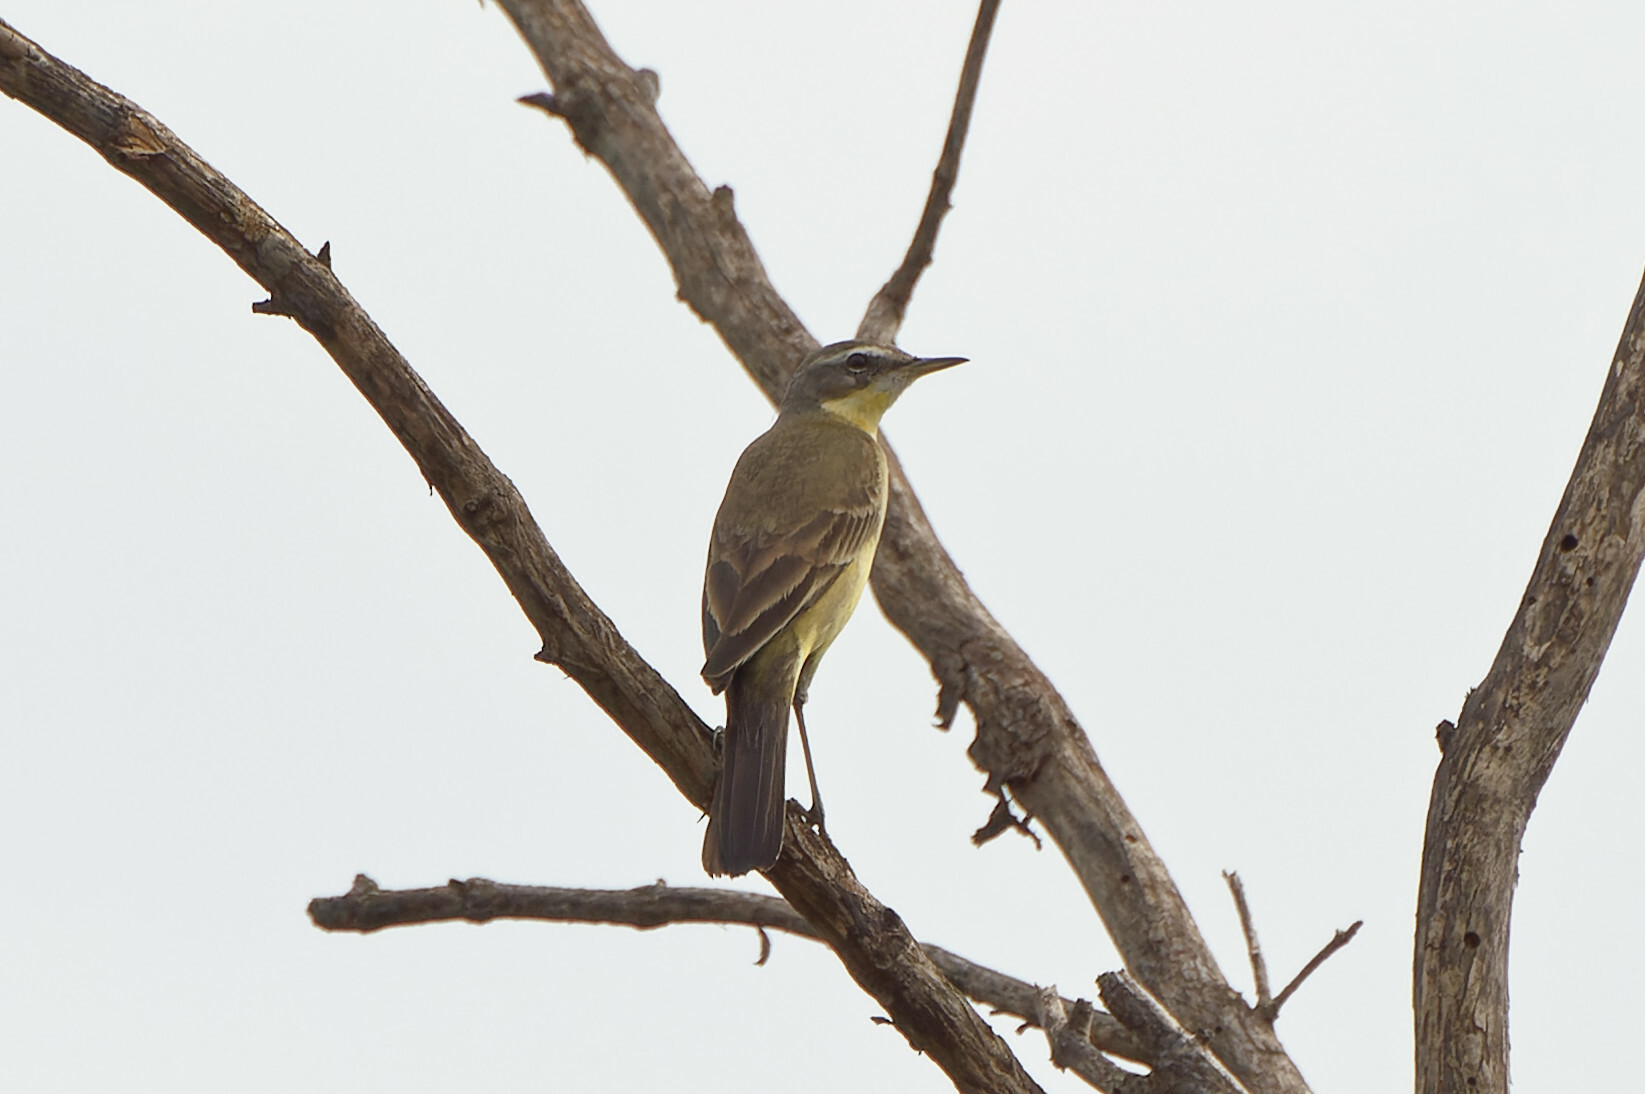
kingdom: Animalia
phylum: Chordata
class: Aves
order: Passeriformes
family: Motacillidae
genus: Motacilla
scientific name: Motacilla tschutschensis
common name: Eastern yellow wagtail
